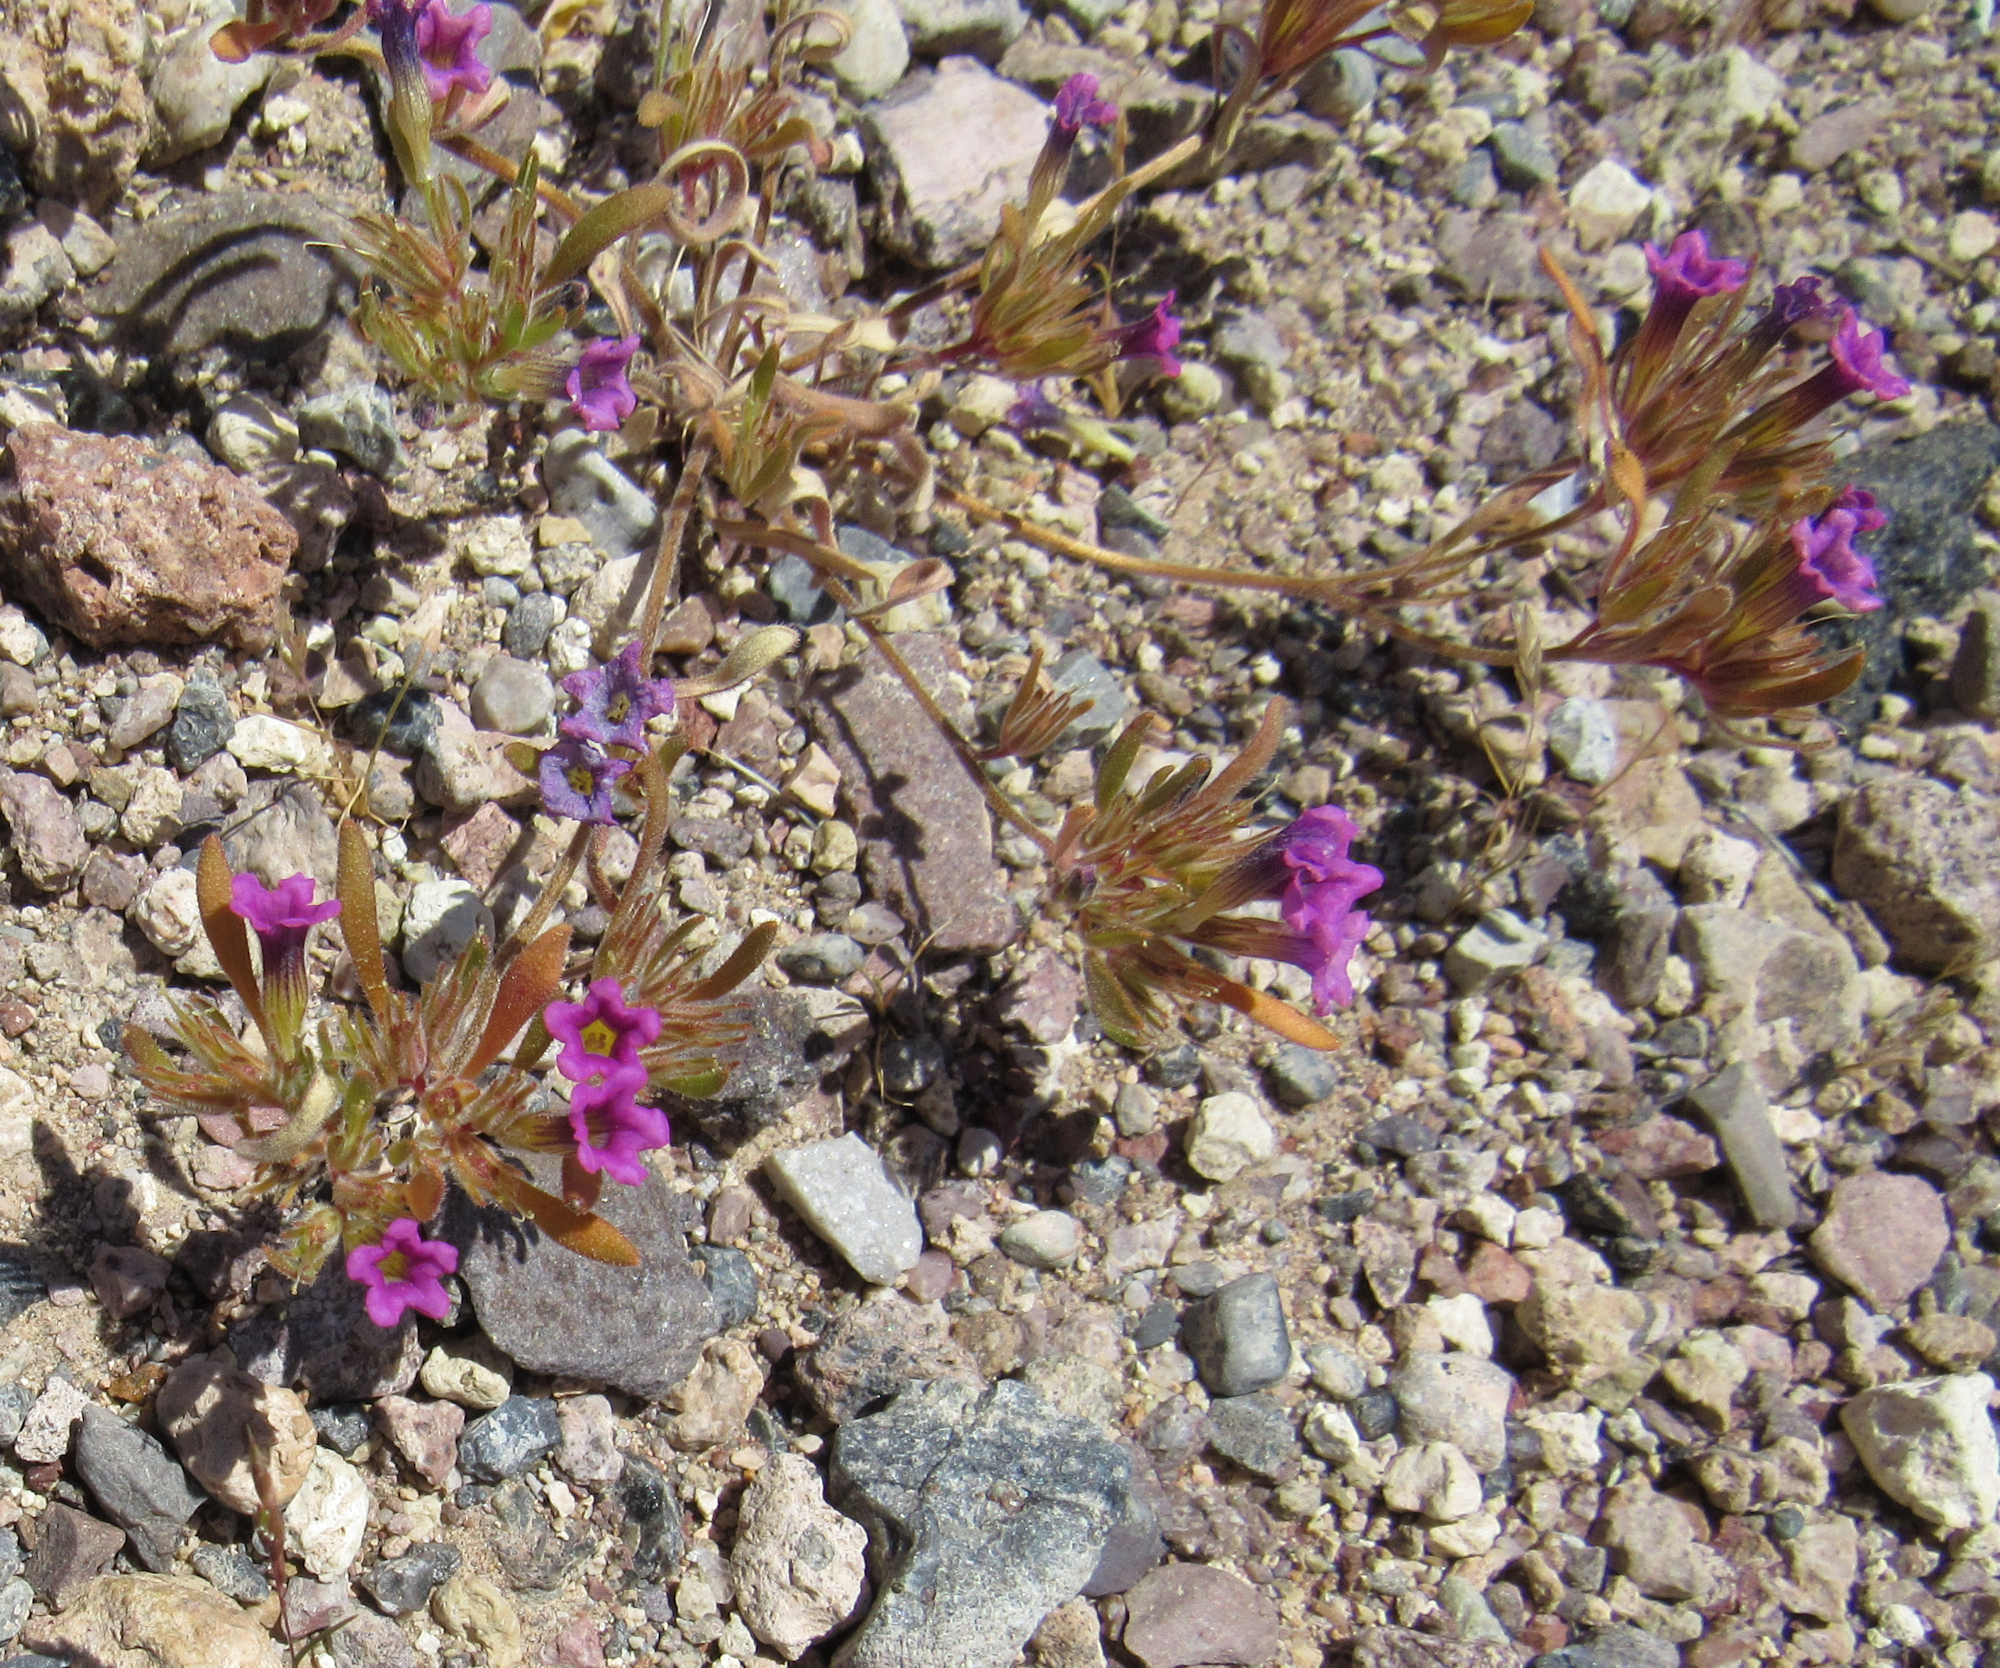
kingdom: Plantae
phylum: Tracheophyta
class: Magnoliopsida
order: Boraginales
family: Namaceae
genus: Nama
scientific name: Nama demissa
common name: Leafy nama
